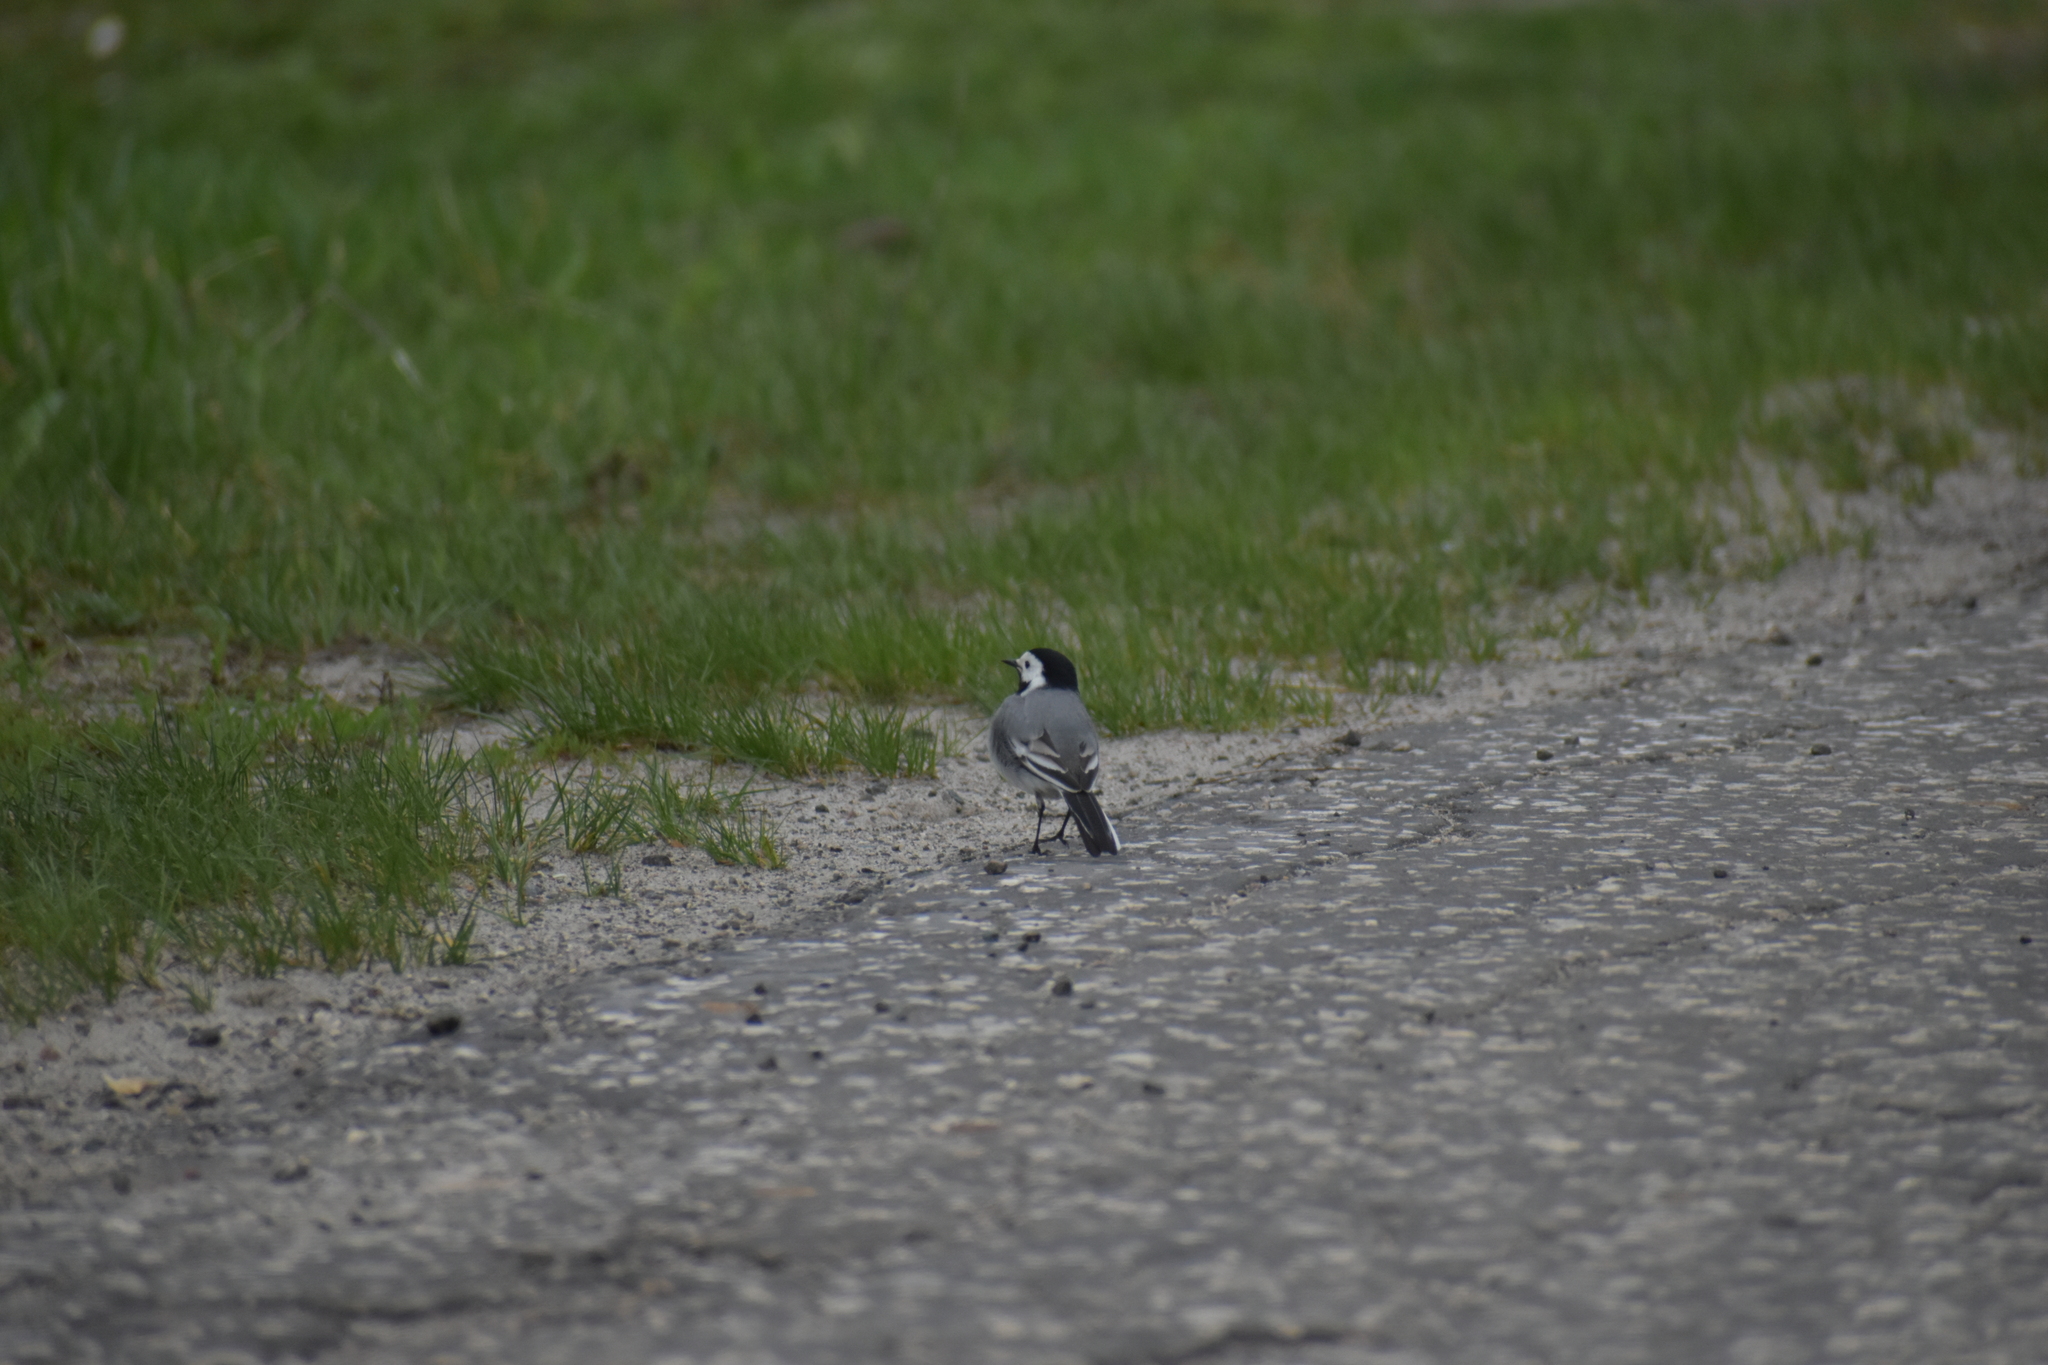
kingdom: Animalia
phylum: Chordata
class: Aves
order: Passeriformes
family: Motacillidae
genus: Motacilla
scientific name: Motacilla alba
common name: White wagtail
